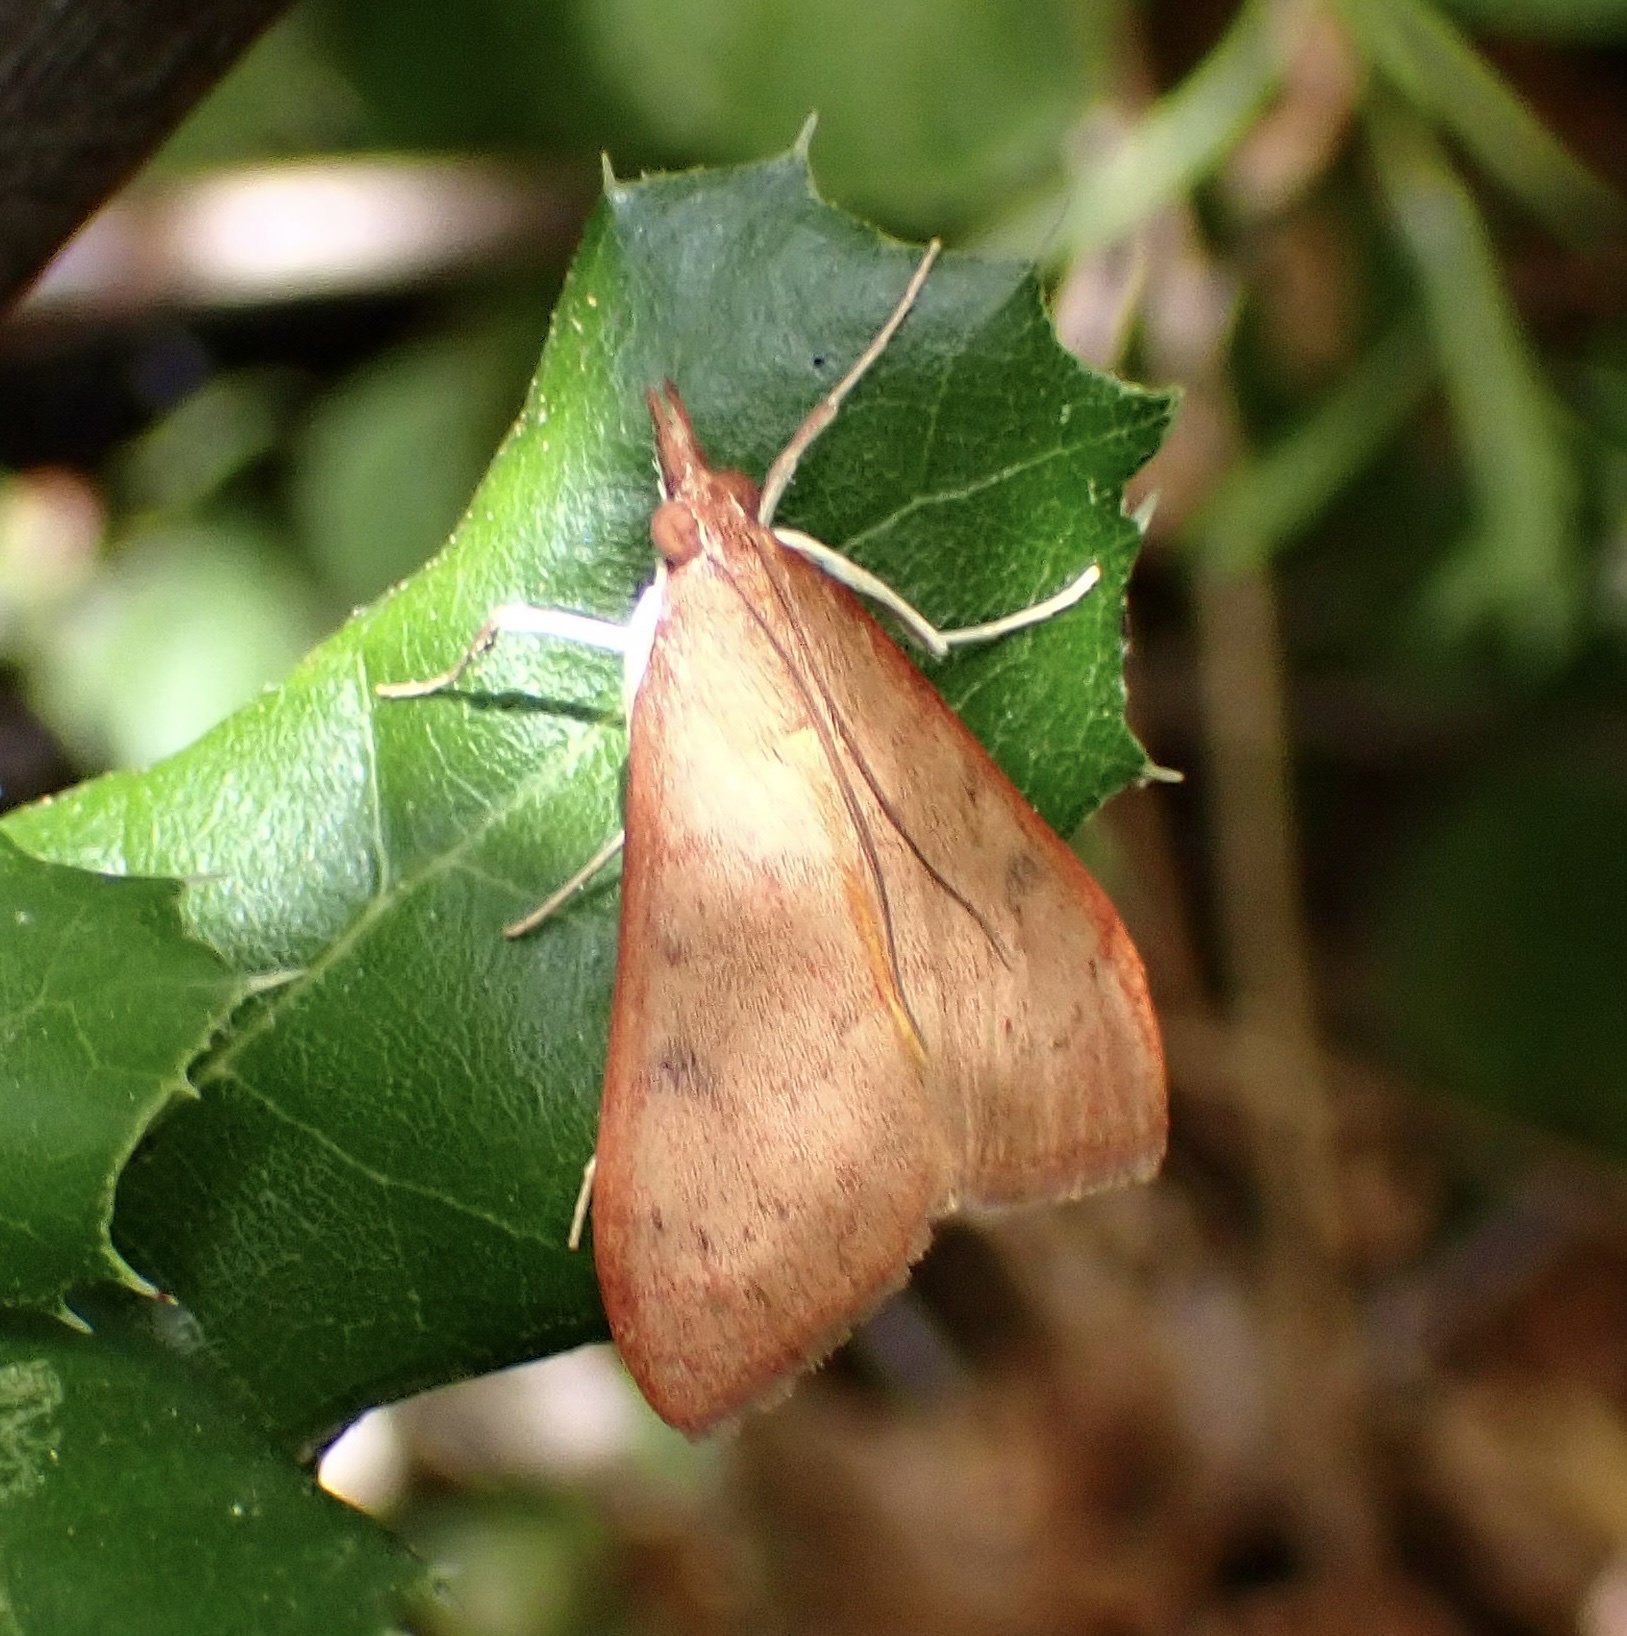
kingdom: Animalia
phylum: Arthropoda
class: Insecta
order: Lepidoptera
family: Crambidae
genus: Uresiphita
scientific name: Uresiphita reversalis
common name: Genista broom moth
